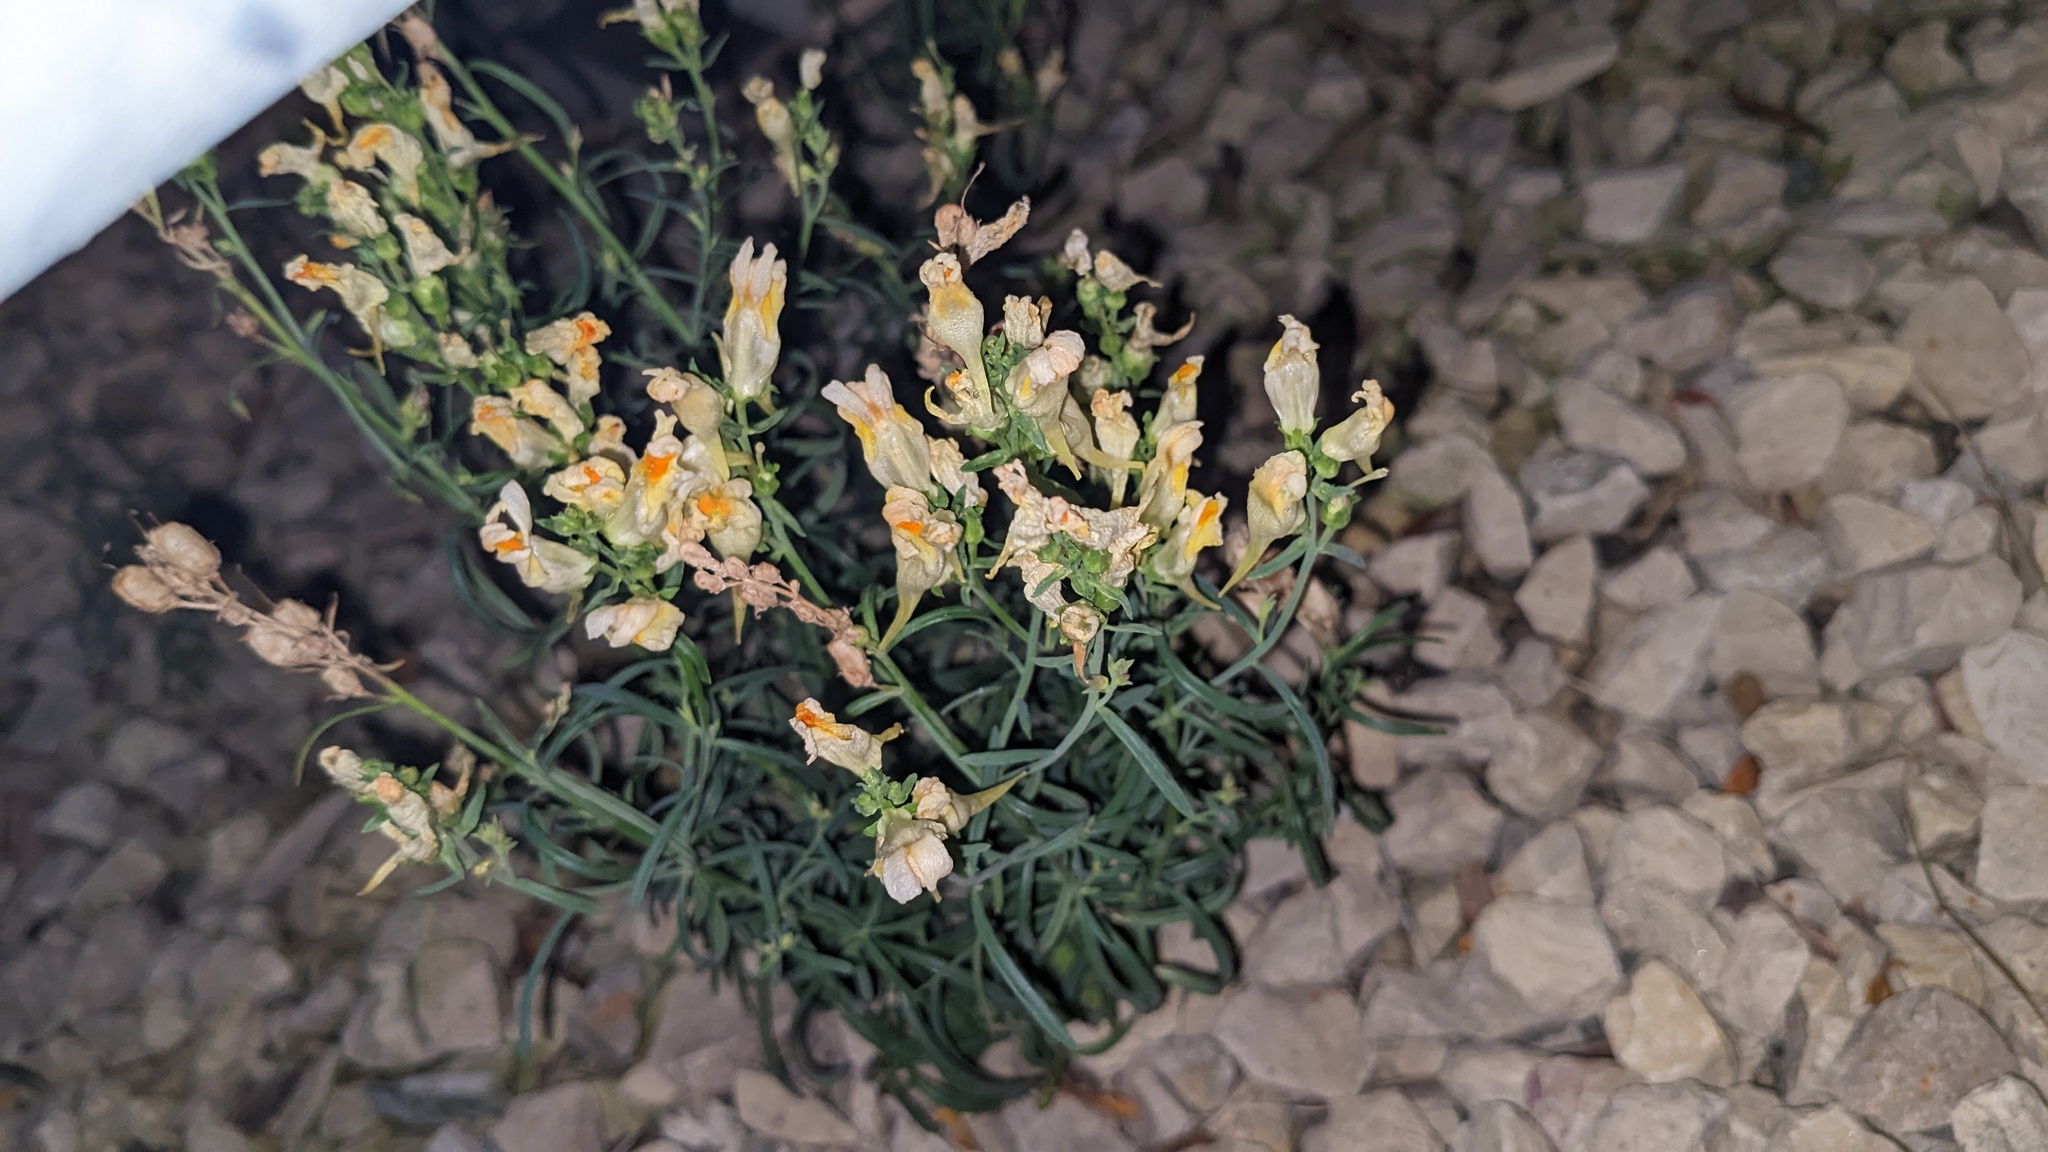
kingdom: Plantae
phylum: Tracheophyta
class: Magnoliopsida
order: Lamiales
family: Plantaginaceae
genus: Linaria
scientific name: Linaria vulgaris
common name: Butter and eggs
